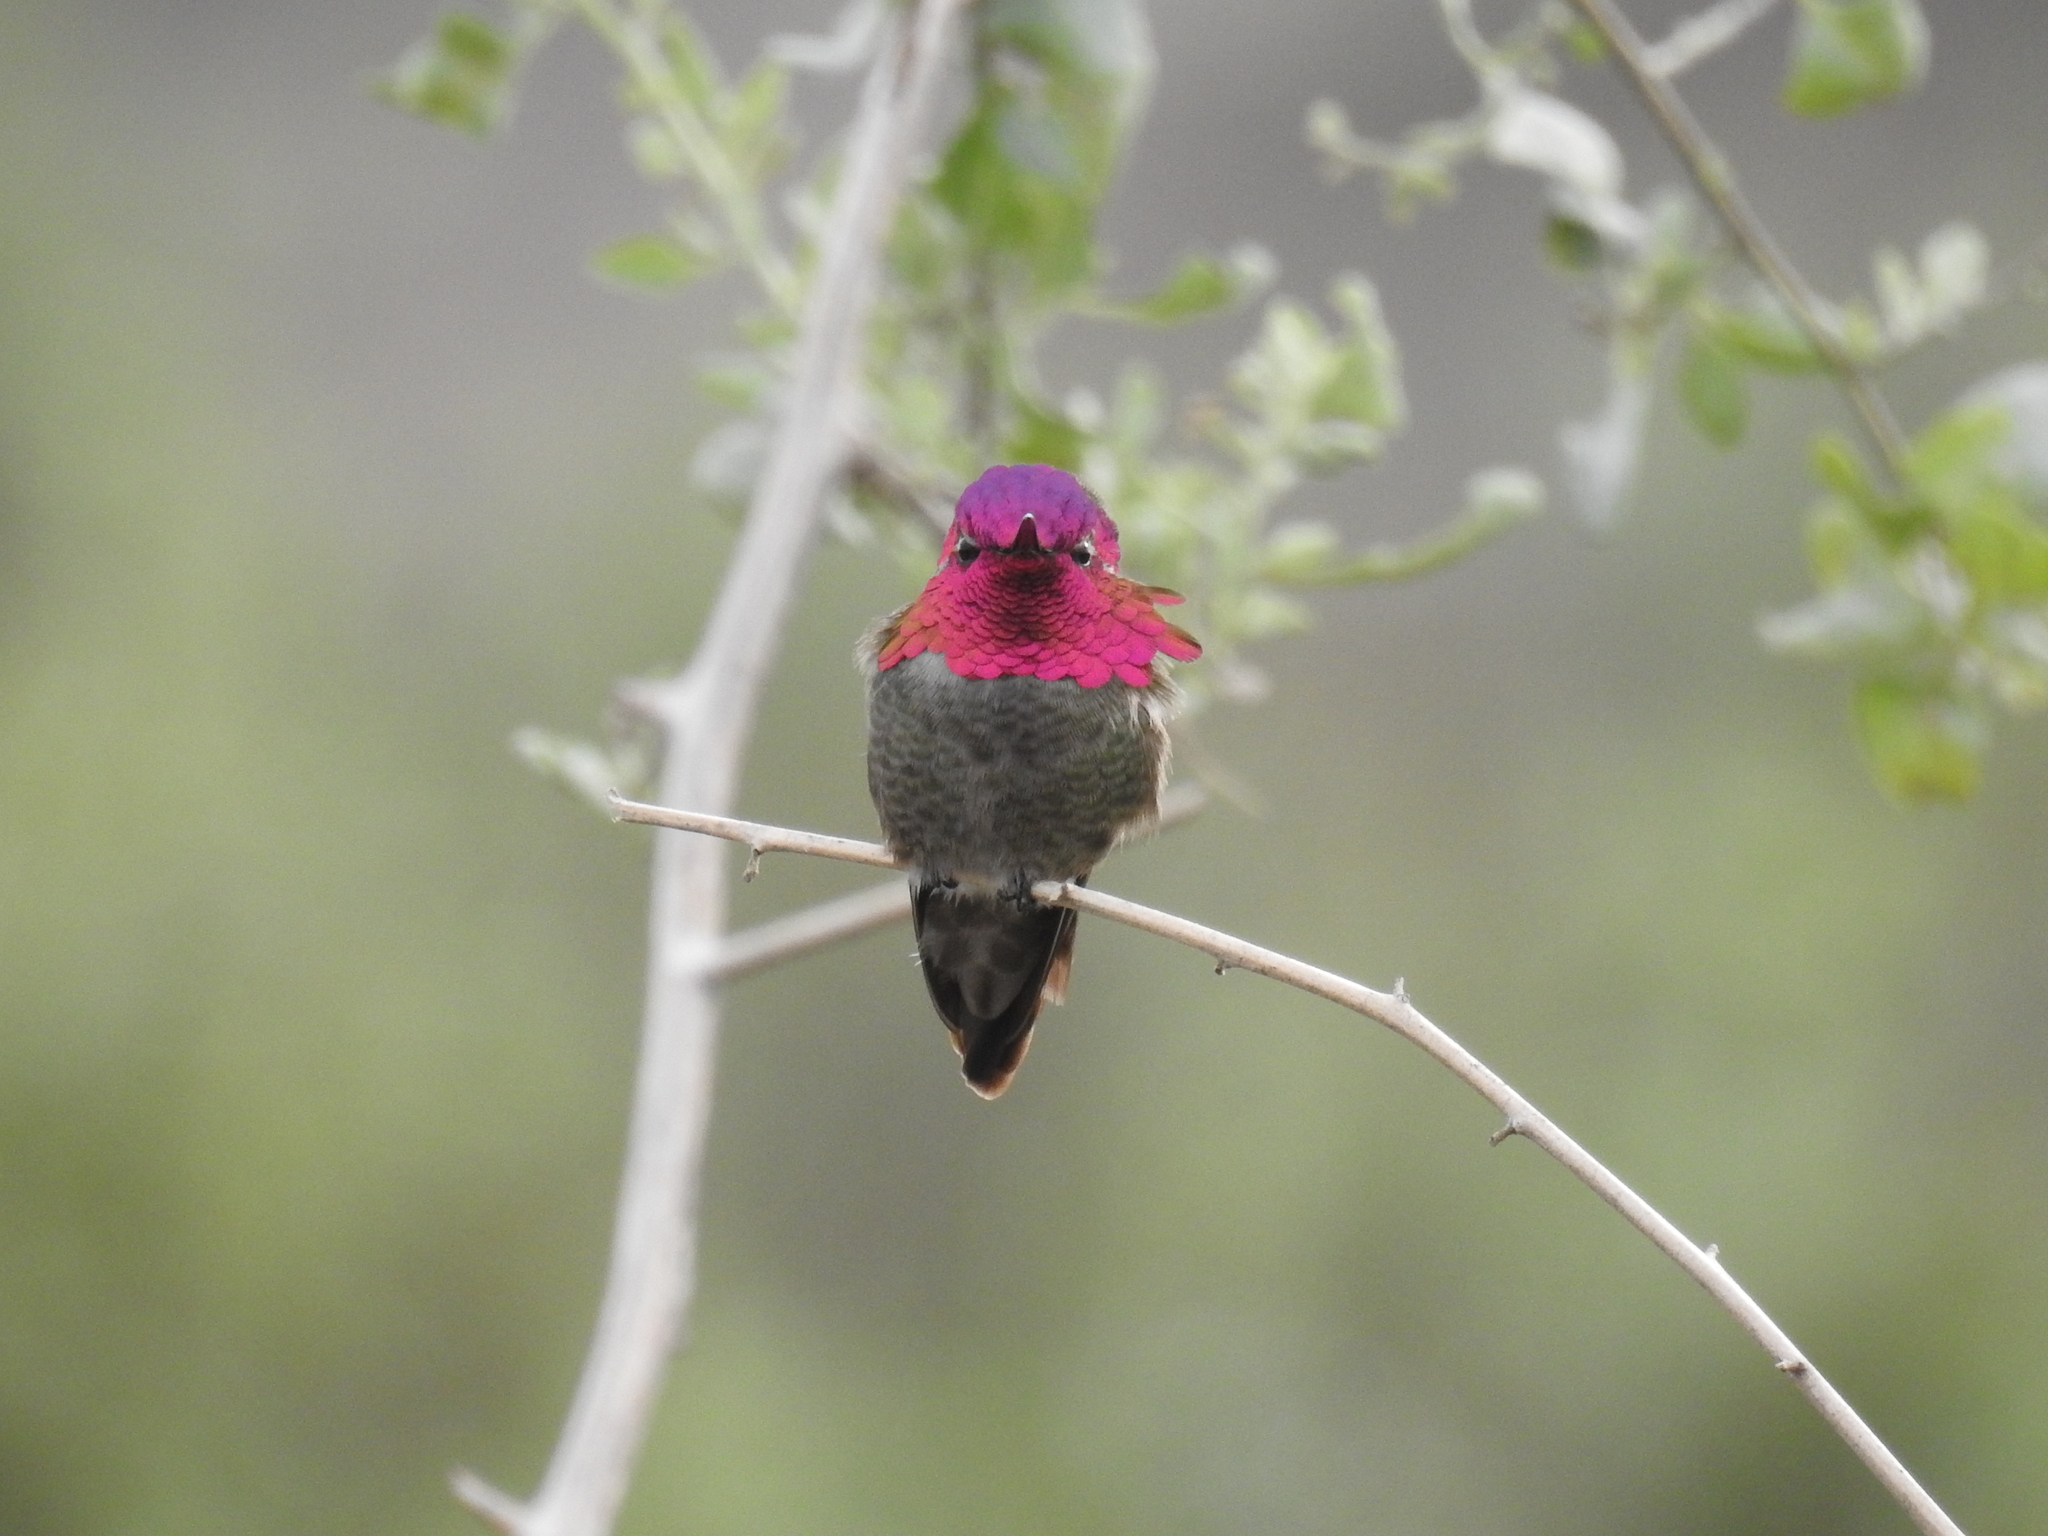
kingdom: Animalia
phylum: Chordata
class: Aves
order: Apodiformes
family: Trochilidae
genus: Calypte
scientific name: Calypte anna
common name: Anna's hummingbird
